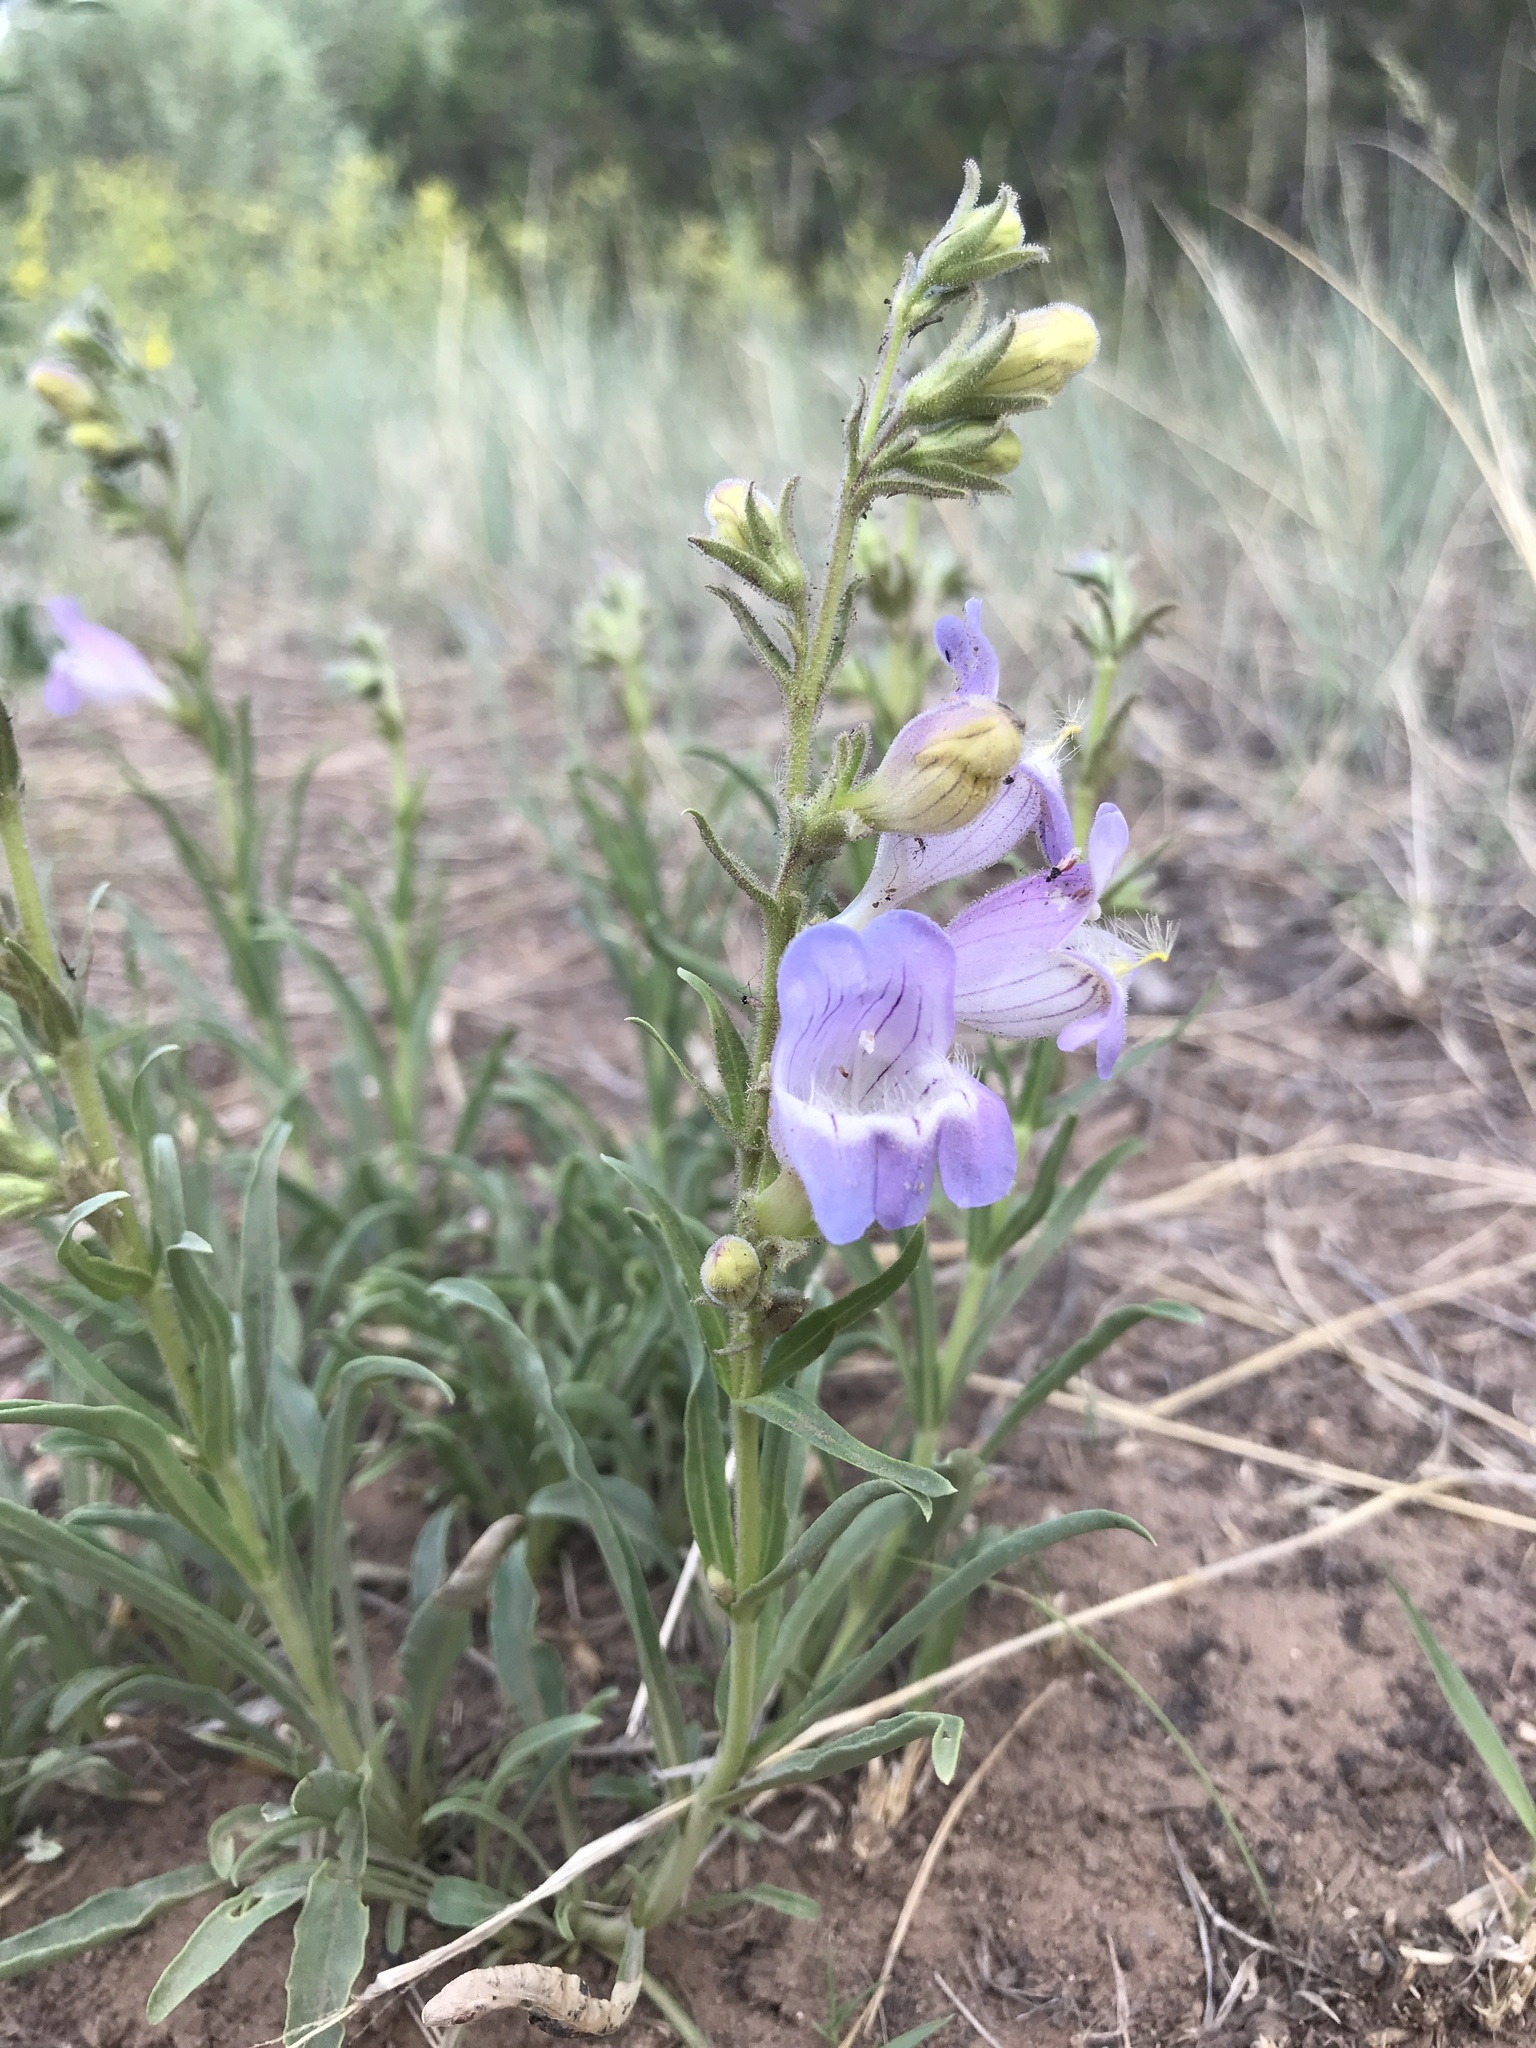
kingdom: Plantae
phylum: Tracheophyta
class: Magnoliopsida
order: Lamiales
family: Plantaginaceae
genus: Penstemon
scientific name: Penstemon jamesii
